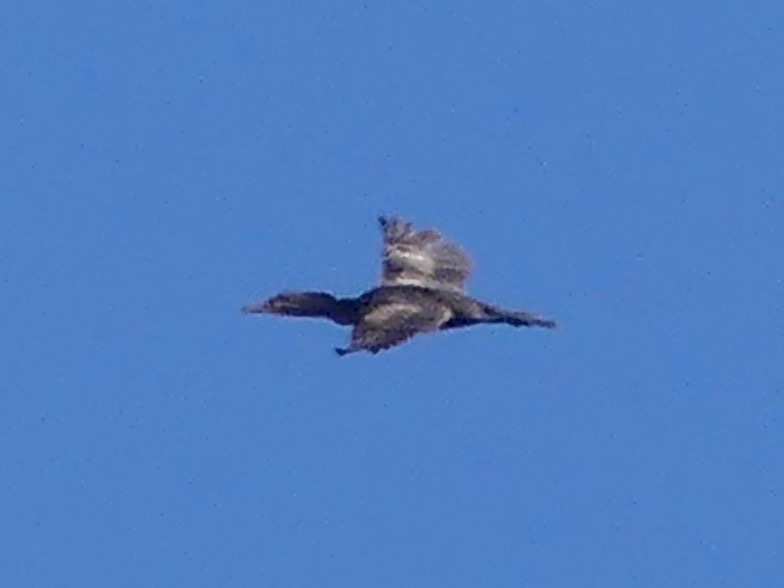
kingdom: Animalia
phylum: Chordata
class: Aves
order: Suliformes
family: Phalacrocoracidae
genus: Phalacrocorax
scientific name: Phalacrocorax auritus
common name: Double-crested cormorant
